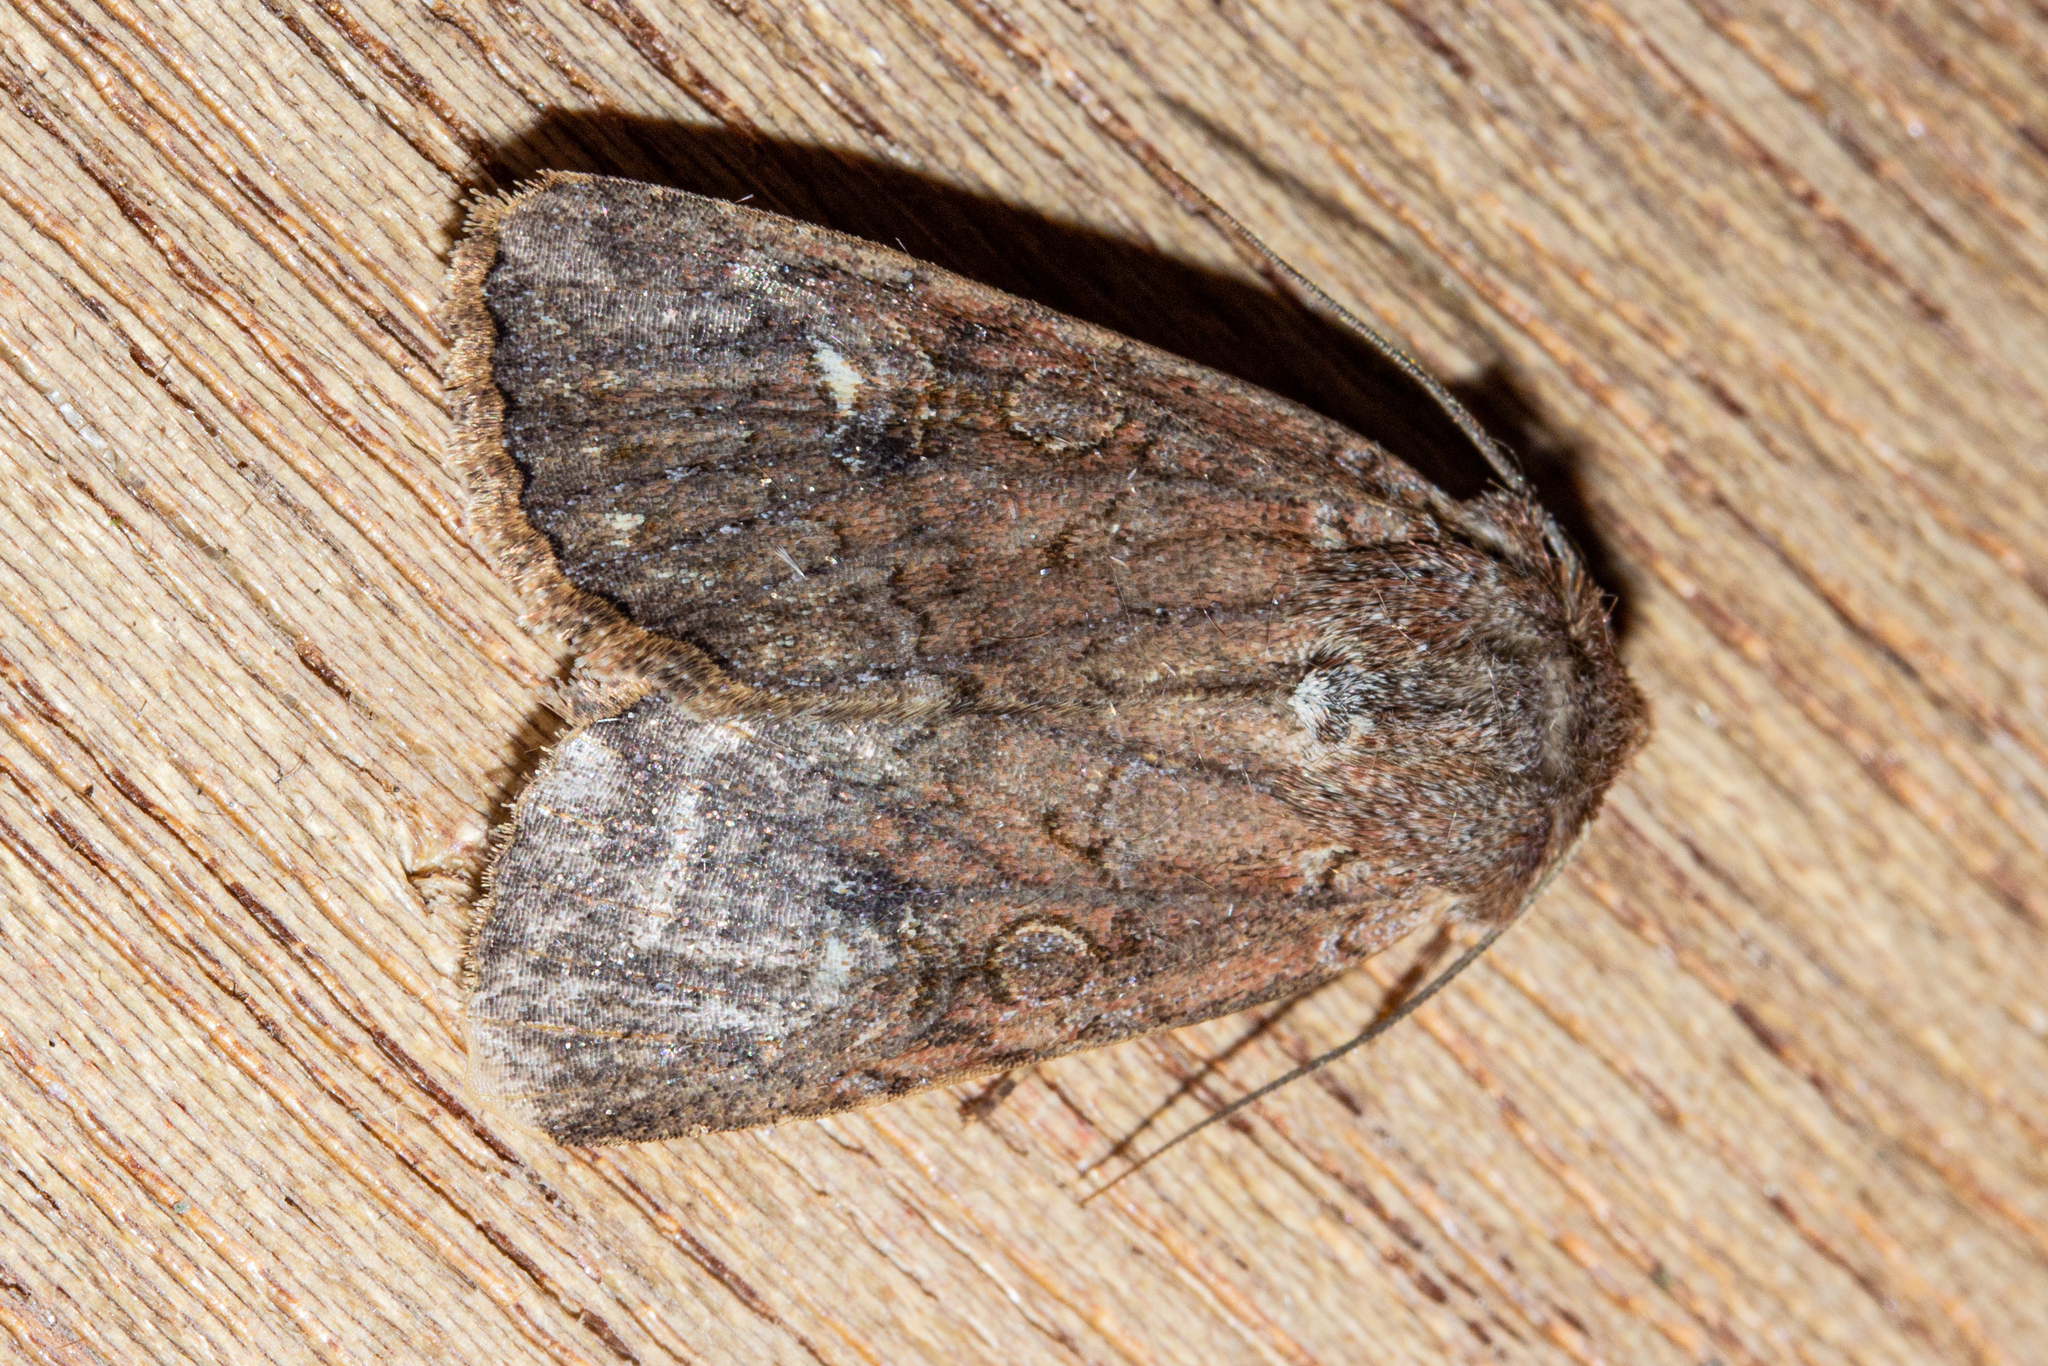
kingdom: Animalia
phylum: Arthropoda
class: Insecta
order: Lepidoptera
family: Noctuidae
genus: Ichneutica
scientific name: Ichneutica
